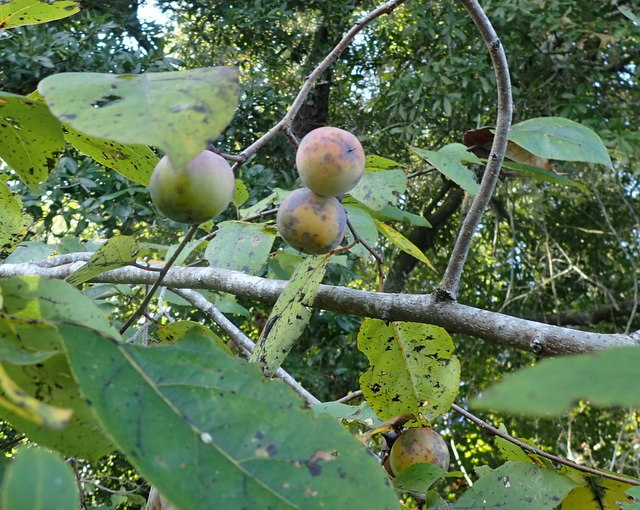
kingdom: Plantae
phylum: Tracheophyta
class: Magnoliopsida
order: Ericales
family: Ebenaceae
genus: Diospyros
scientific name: Diospyros virginiana
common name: Persimmon
